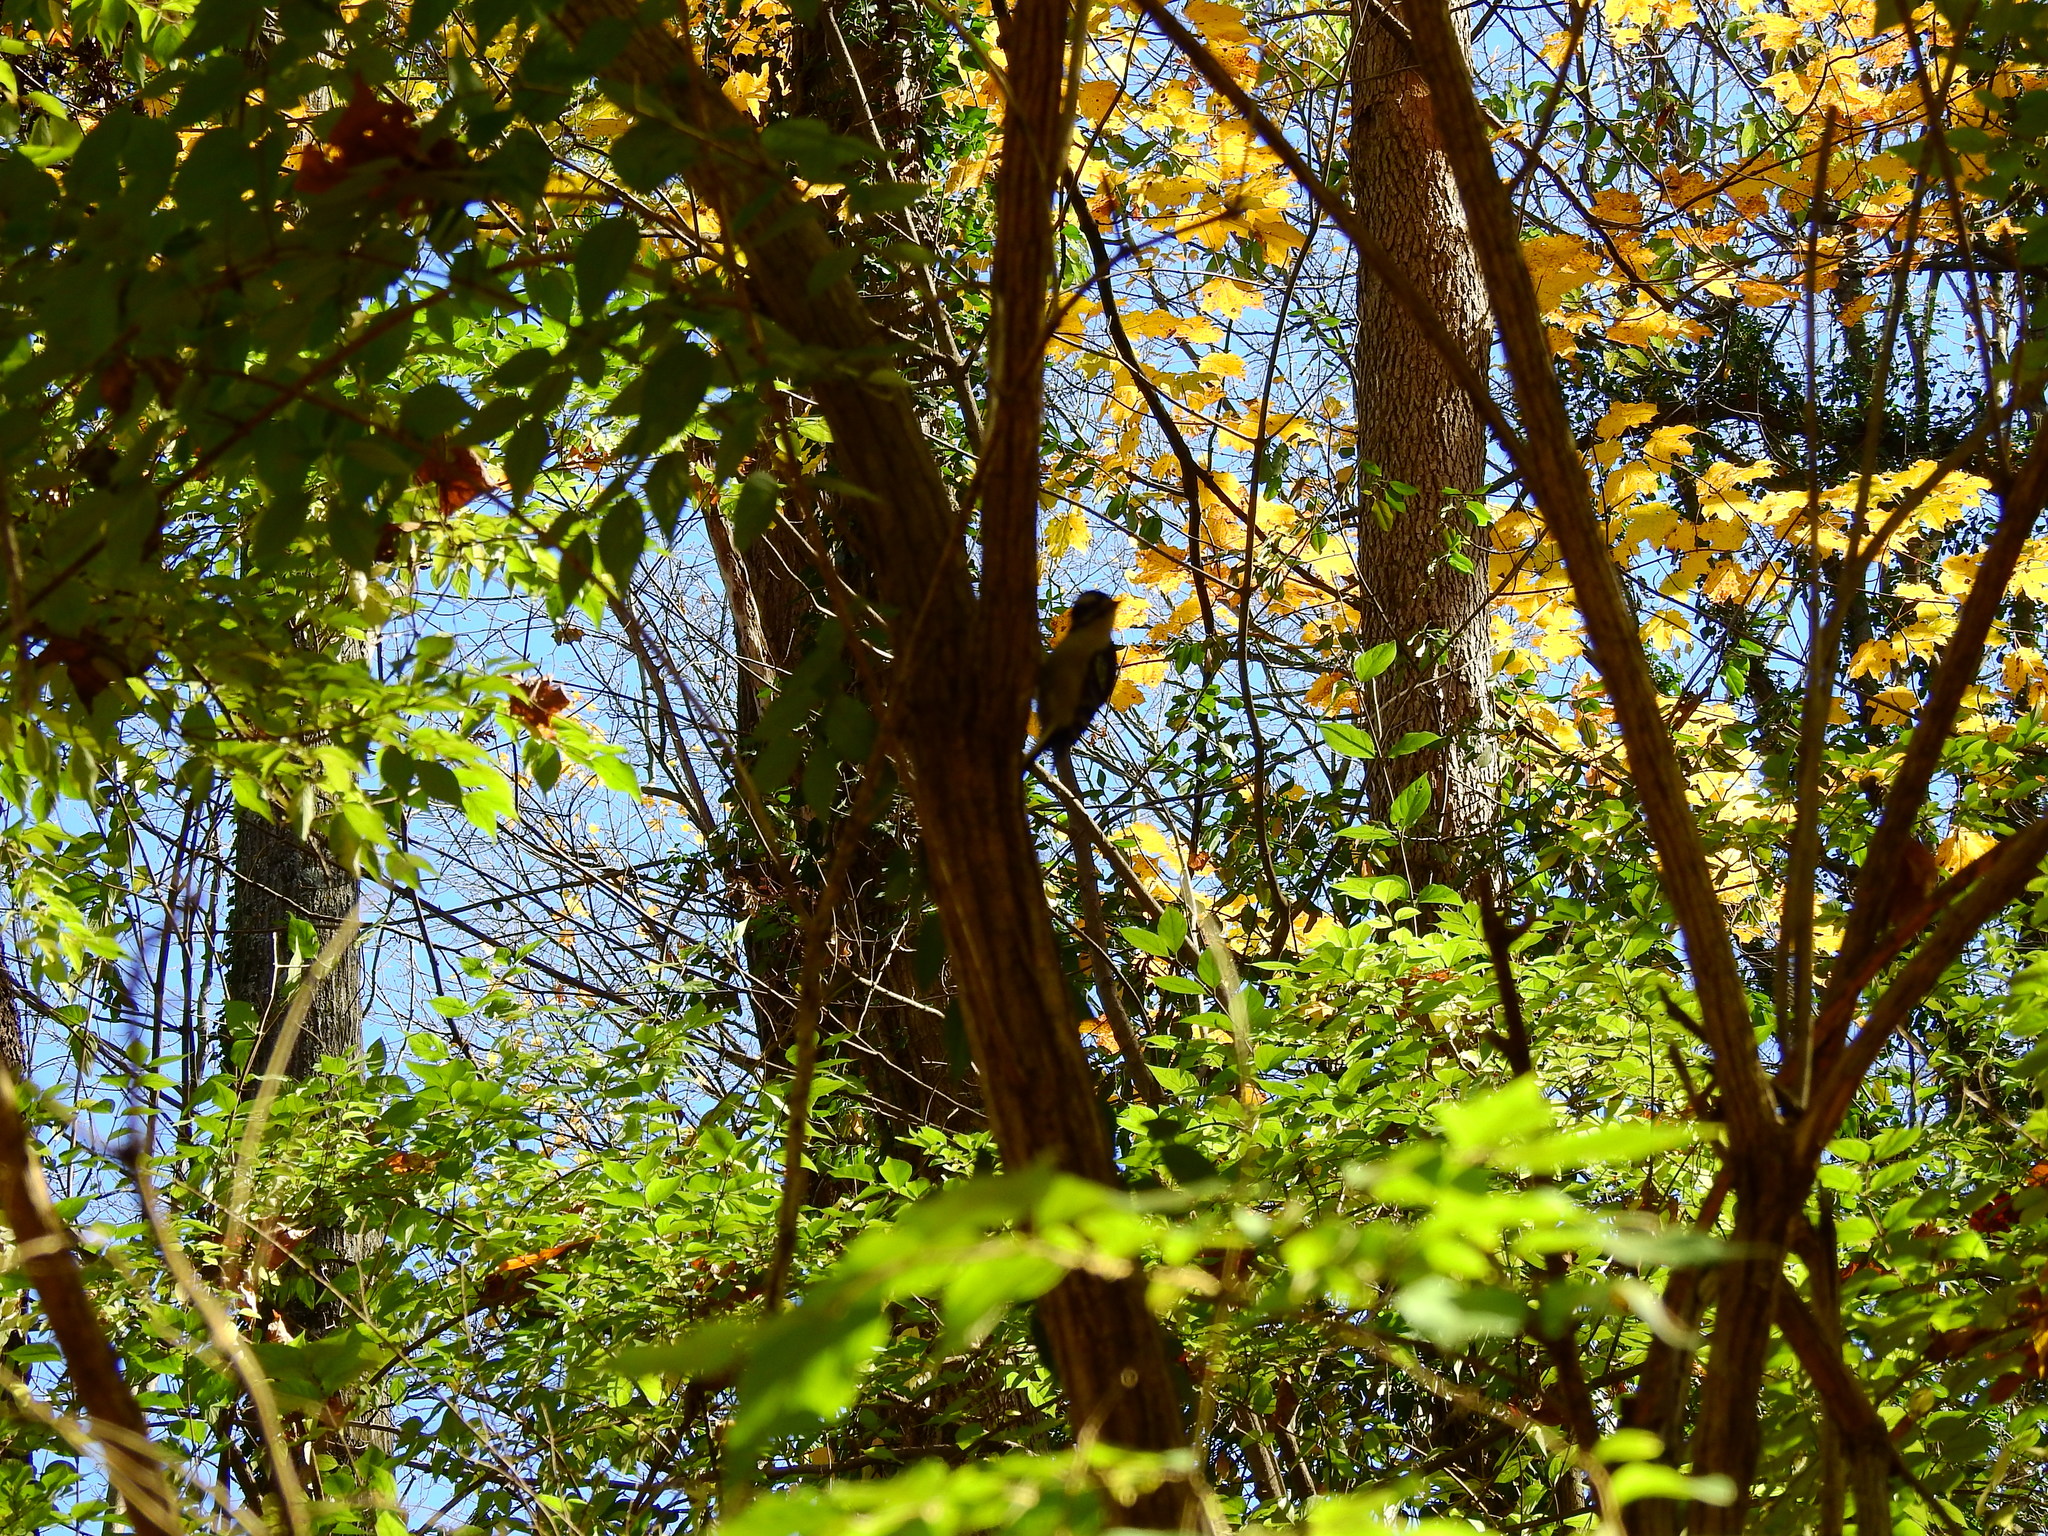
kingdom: Animalia
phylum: Chordata
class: Aves
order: Piciformes
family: Picidae
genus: Dryobates
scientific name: Dryobates pubescens
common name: Downy woodpecker
